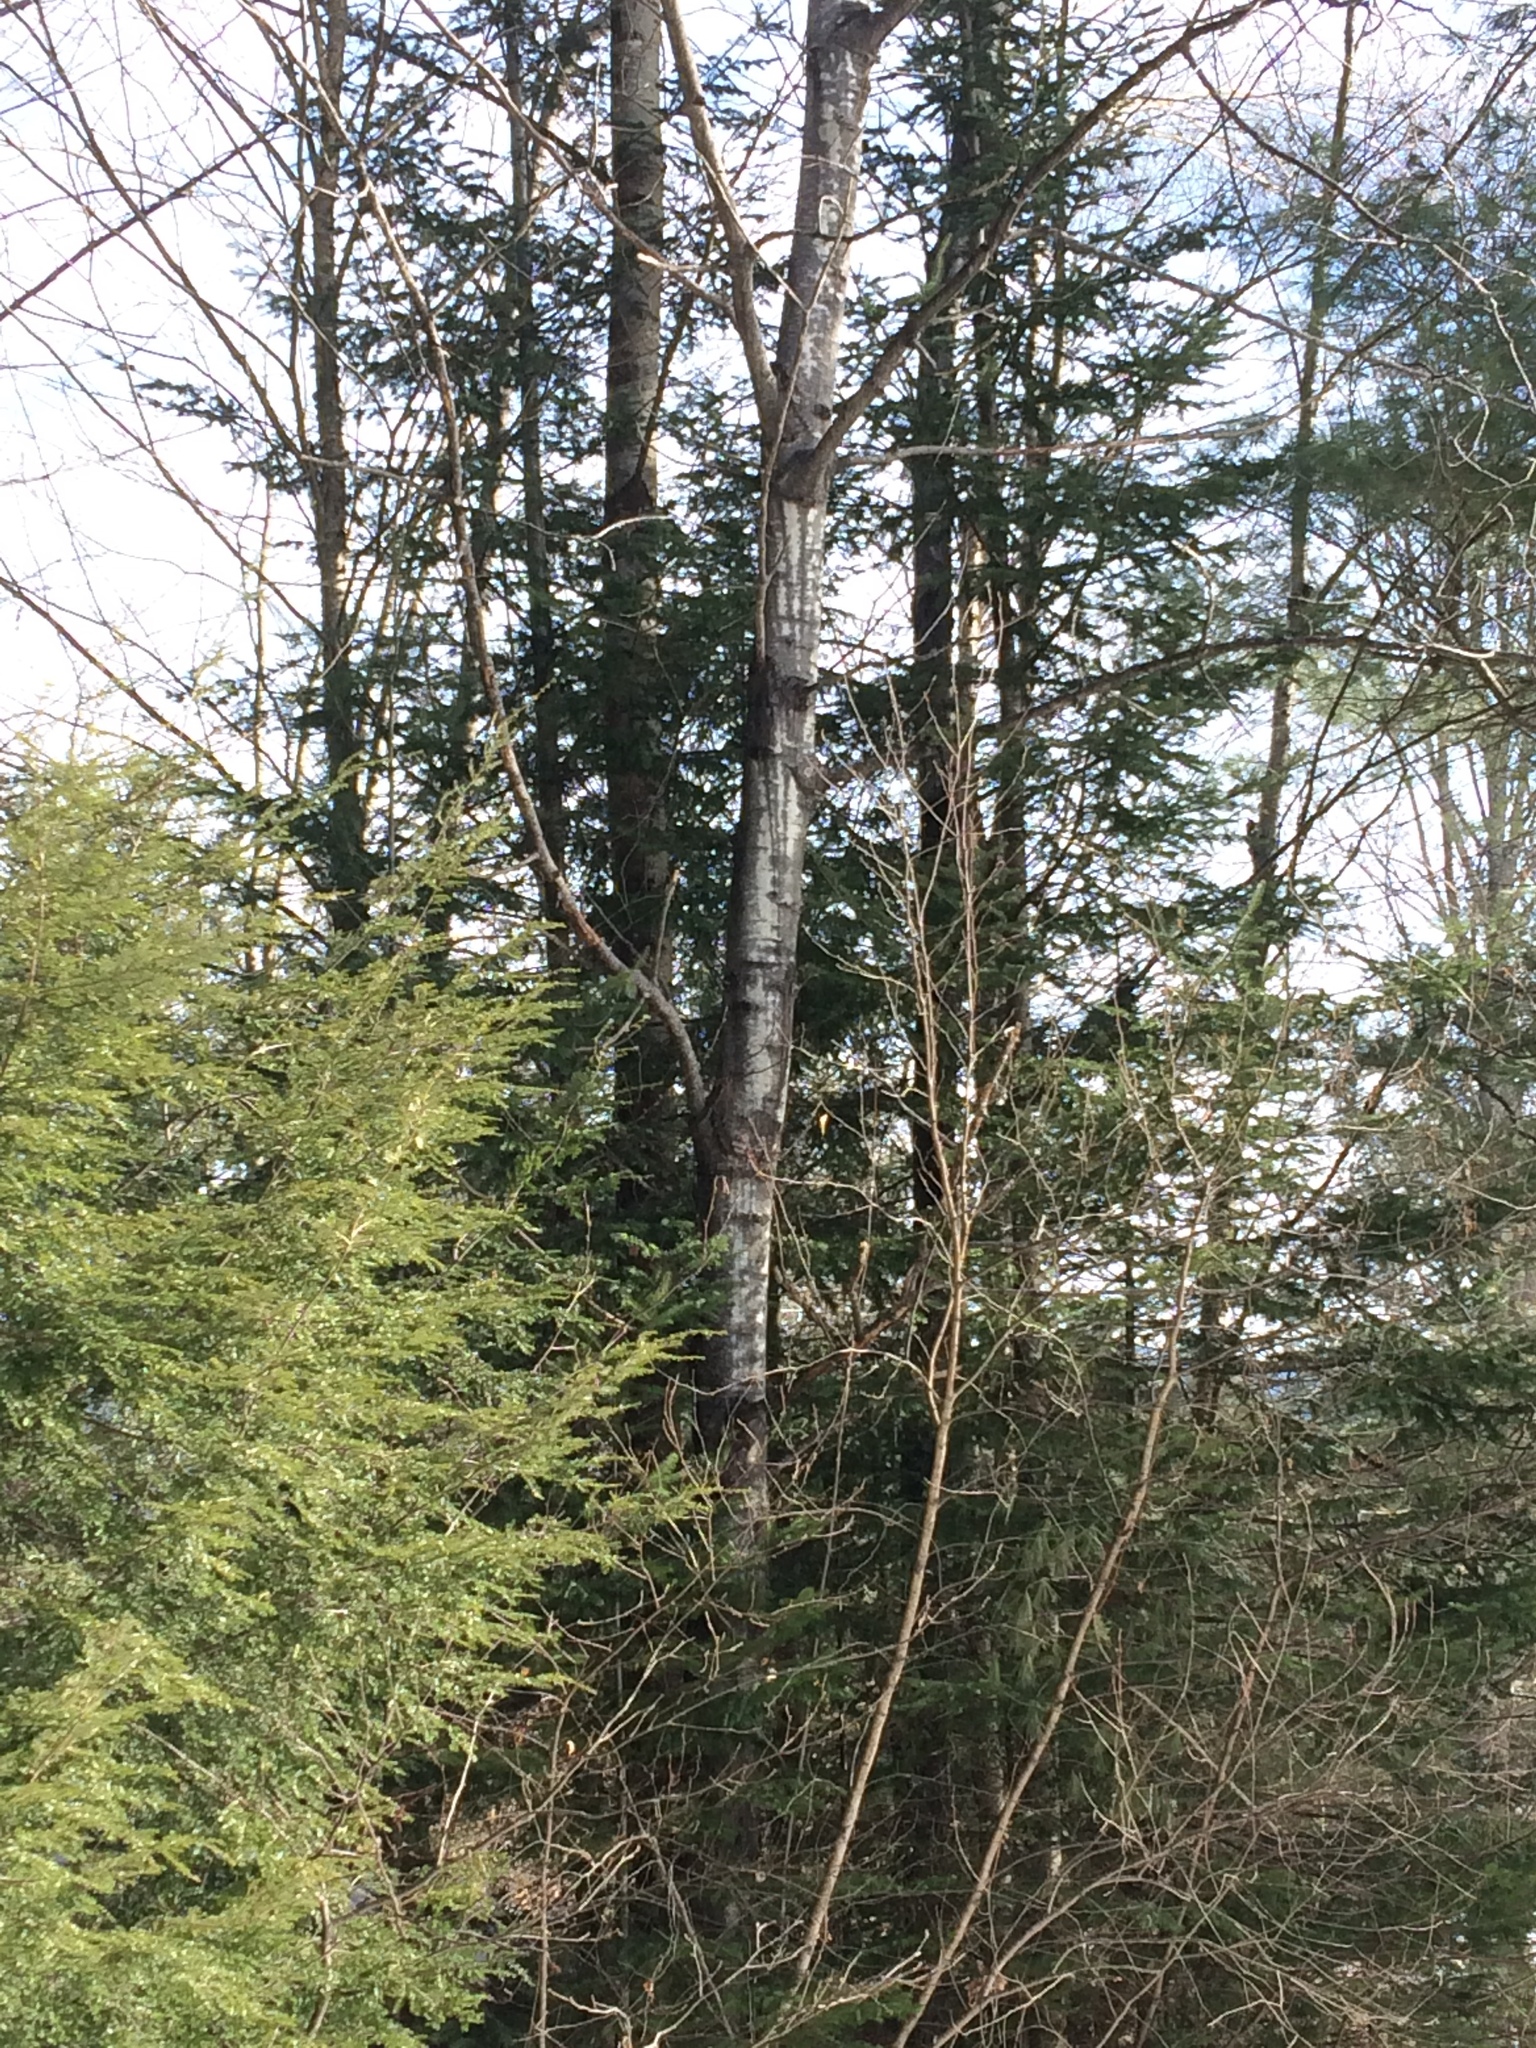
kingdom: Plantae
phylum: Tracheophyta
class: Magnoliopsida
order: Malpighiales
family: Salicaceae
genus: Populus
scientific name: Populus tremuloides
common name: Quaking aspen
